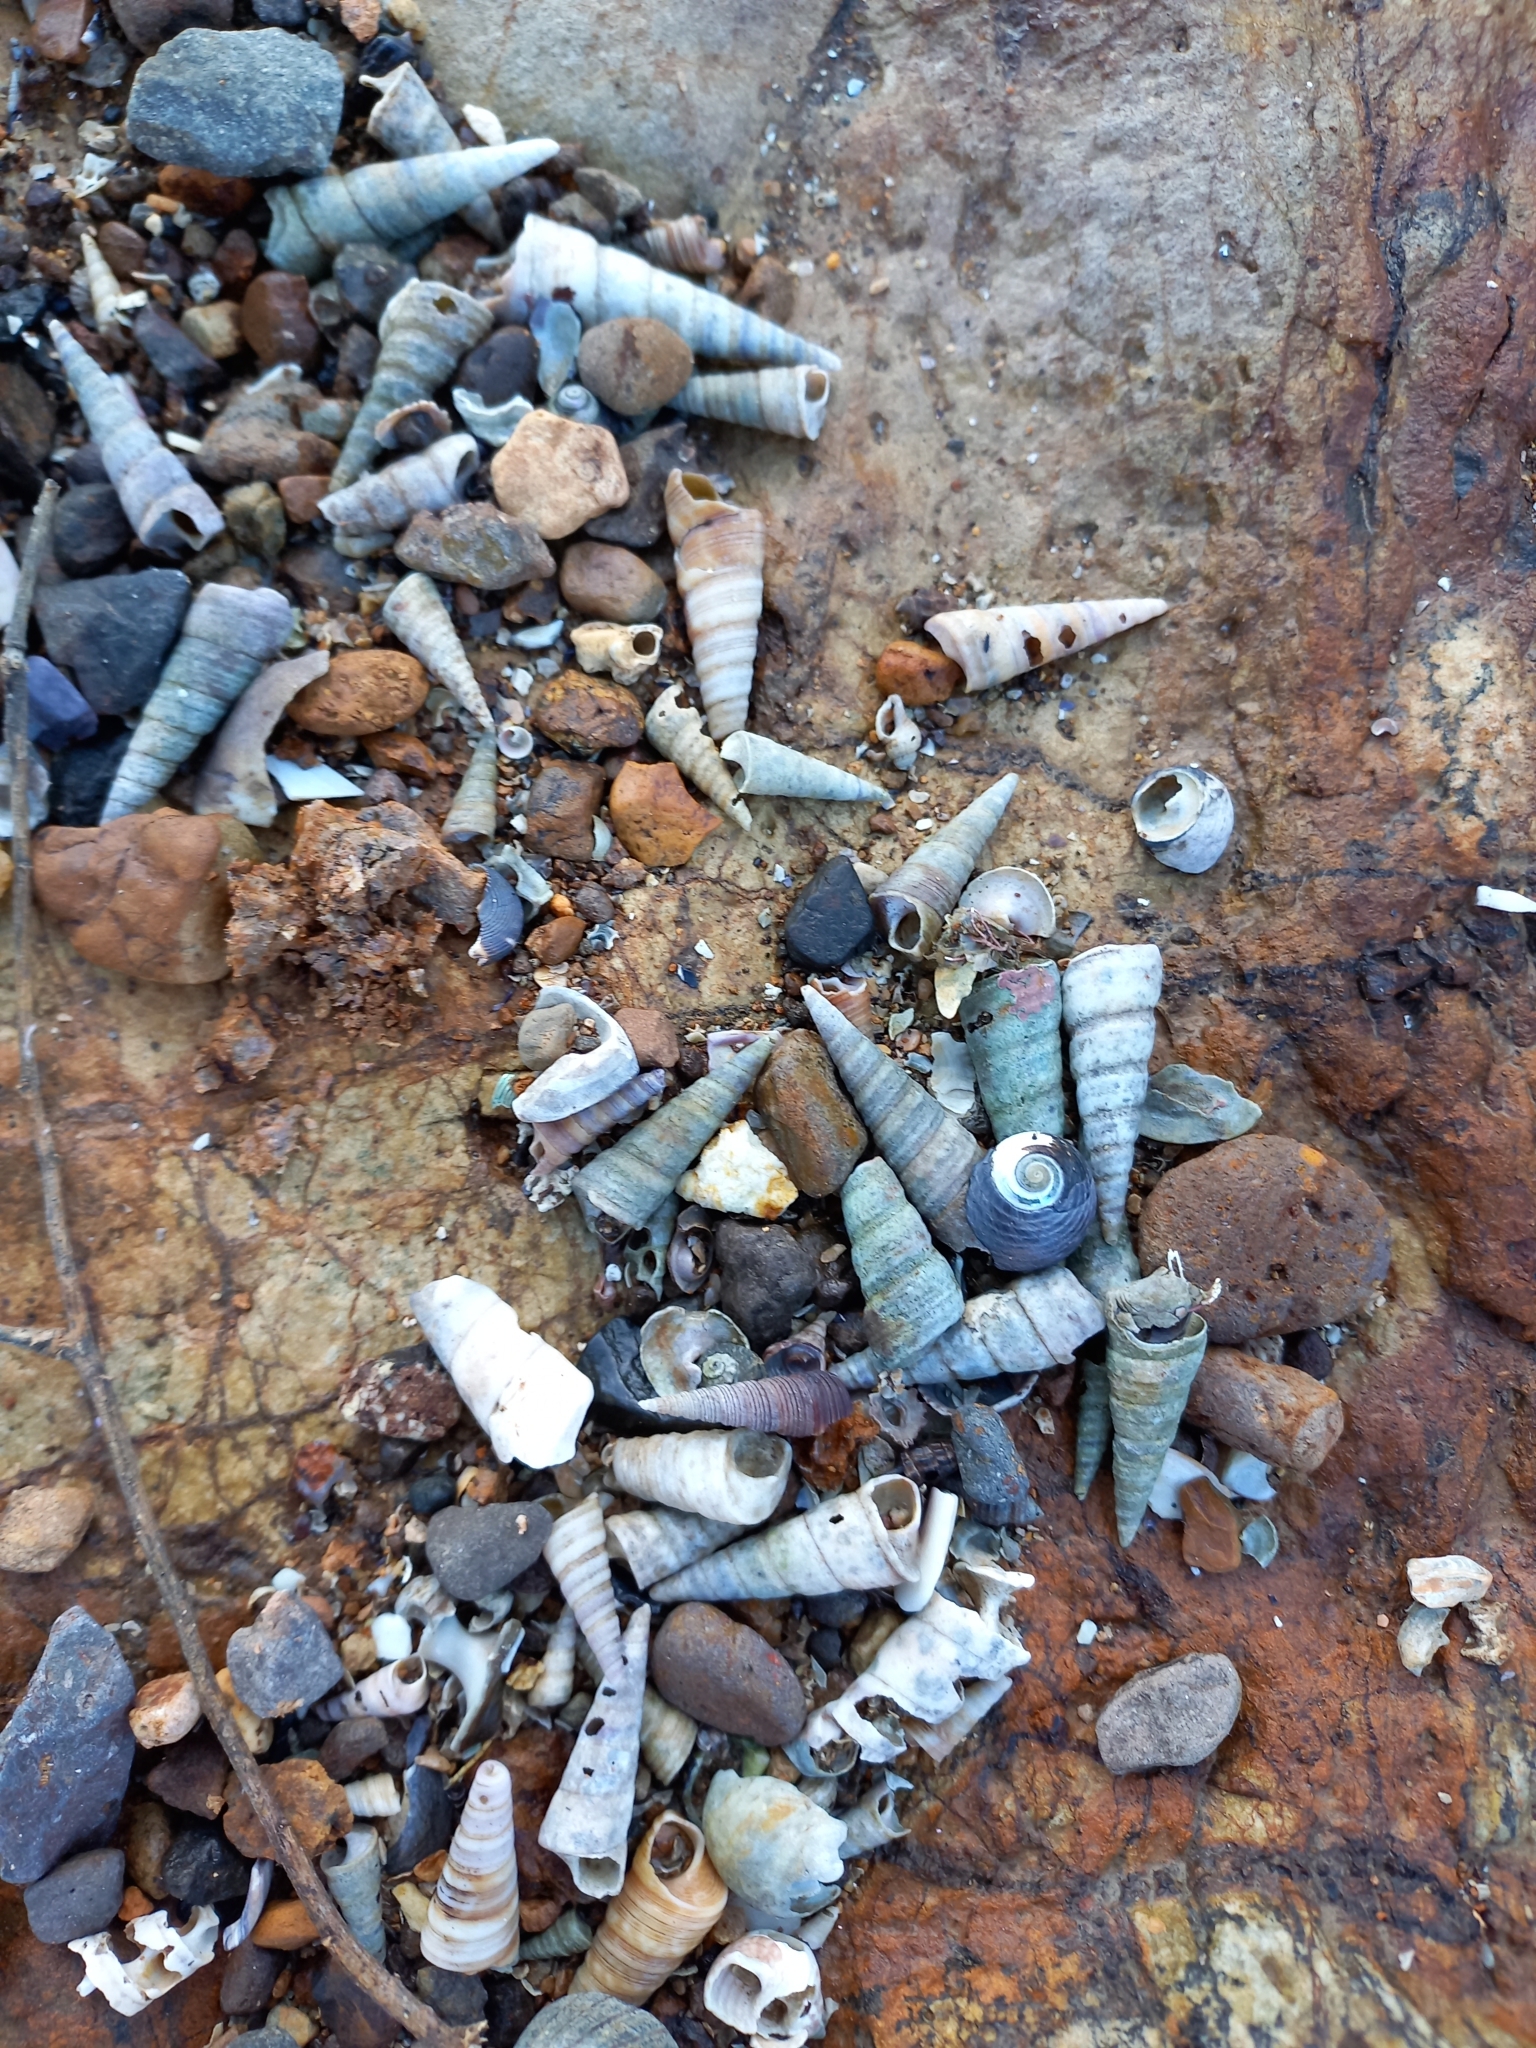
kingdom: Animalia
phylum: Mollusca
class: Gastropoda
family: Turritellidae
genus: Maoricolpus
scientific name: Maoricolpus roseus
